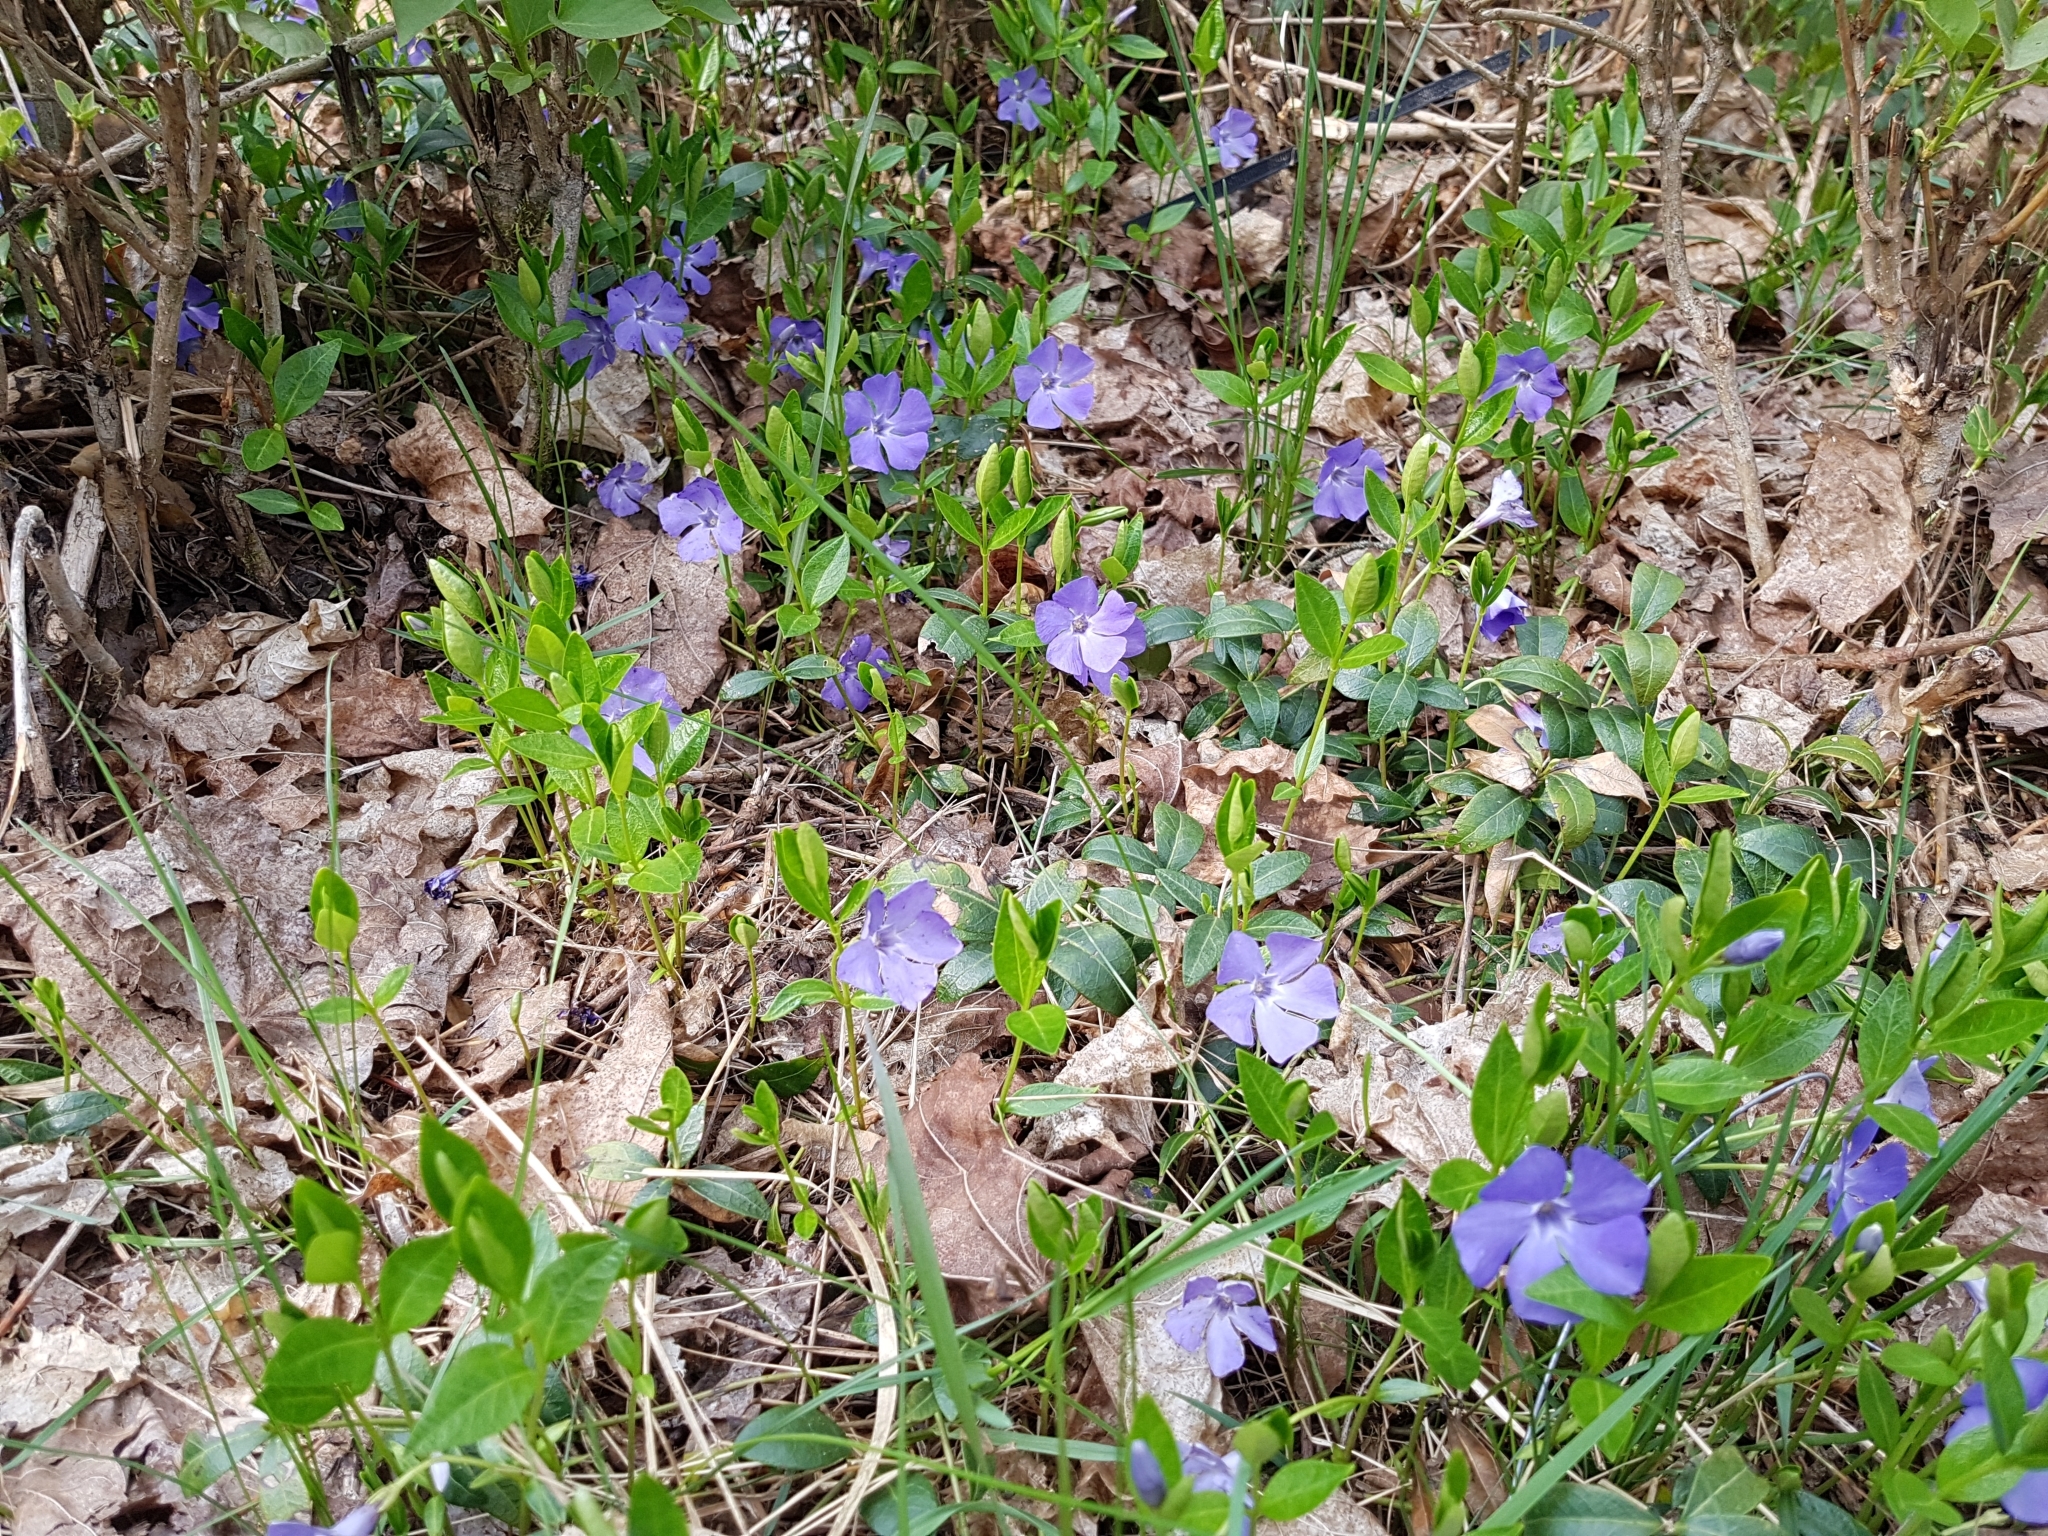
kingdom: Plantae
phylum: Tracheophyta
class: Magnoliopsida
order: Gentianales
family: Apocynaceae
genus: Vinca
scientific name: Vinca minor
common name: Lesser periwinkle
